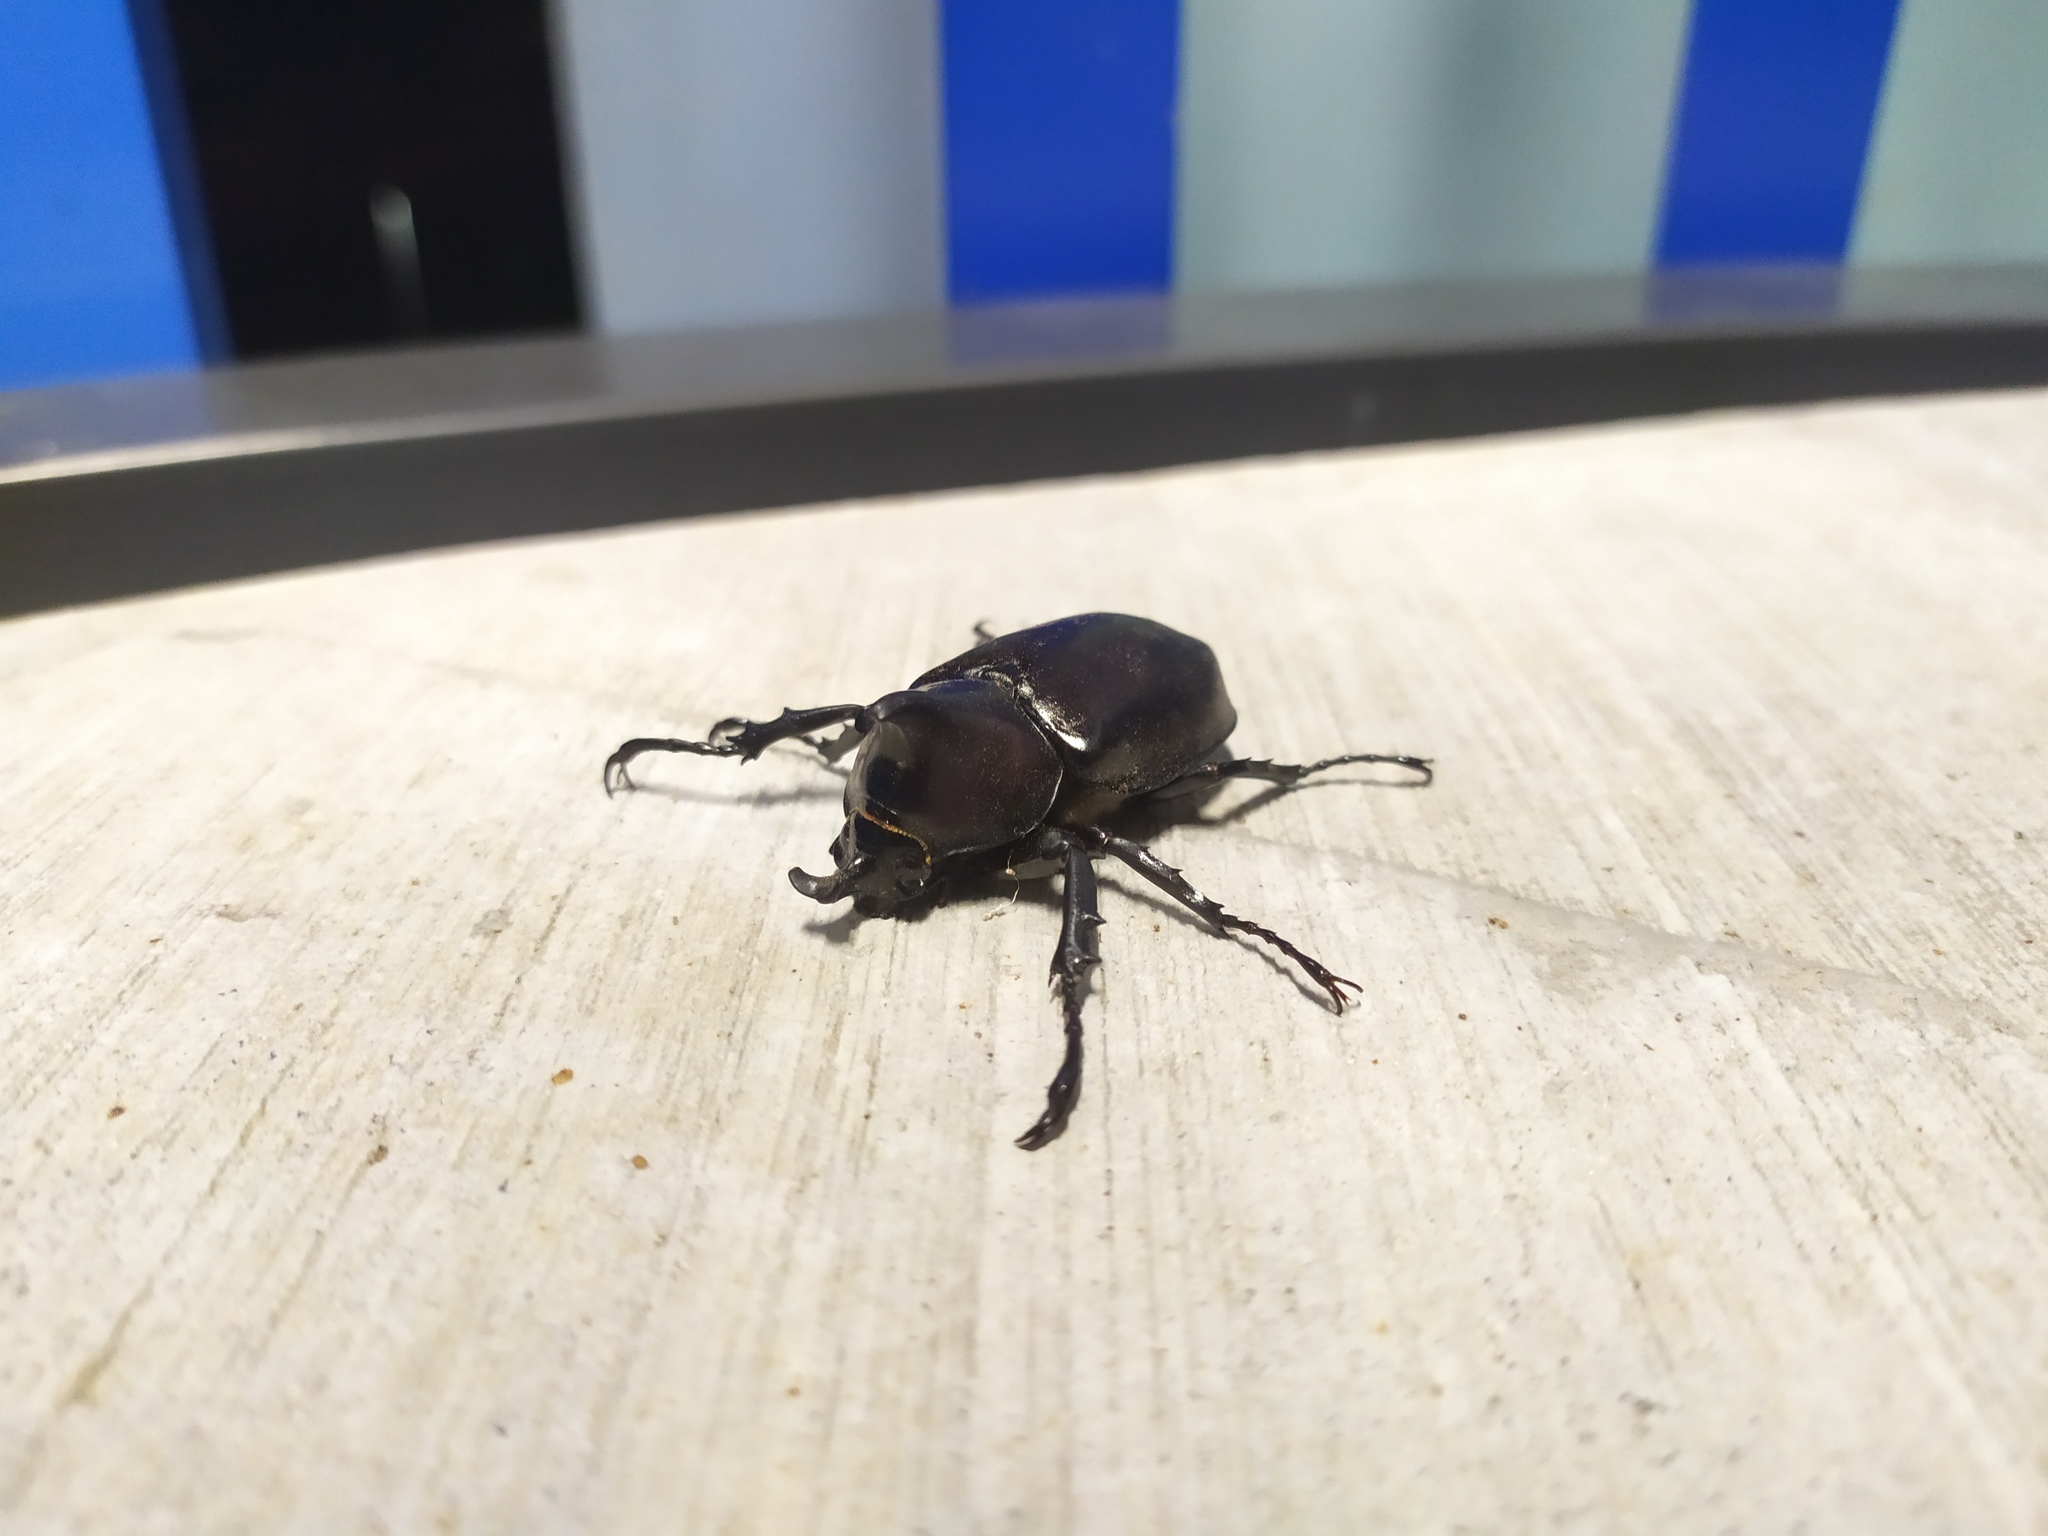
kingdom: Animalia
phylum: Arthropoda
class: Insecta
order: Coleoptera
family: Scarabaeidae
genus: Xylotrupes
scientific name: Xylotrupes australicus
